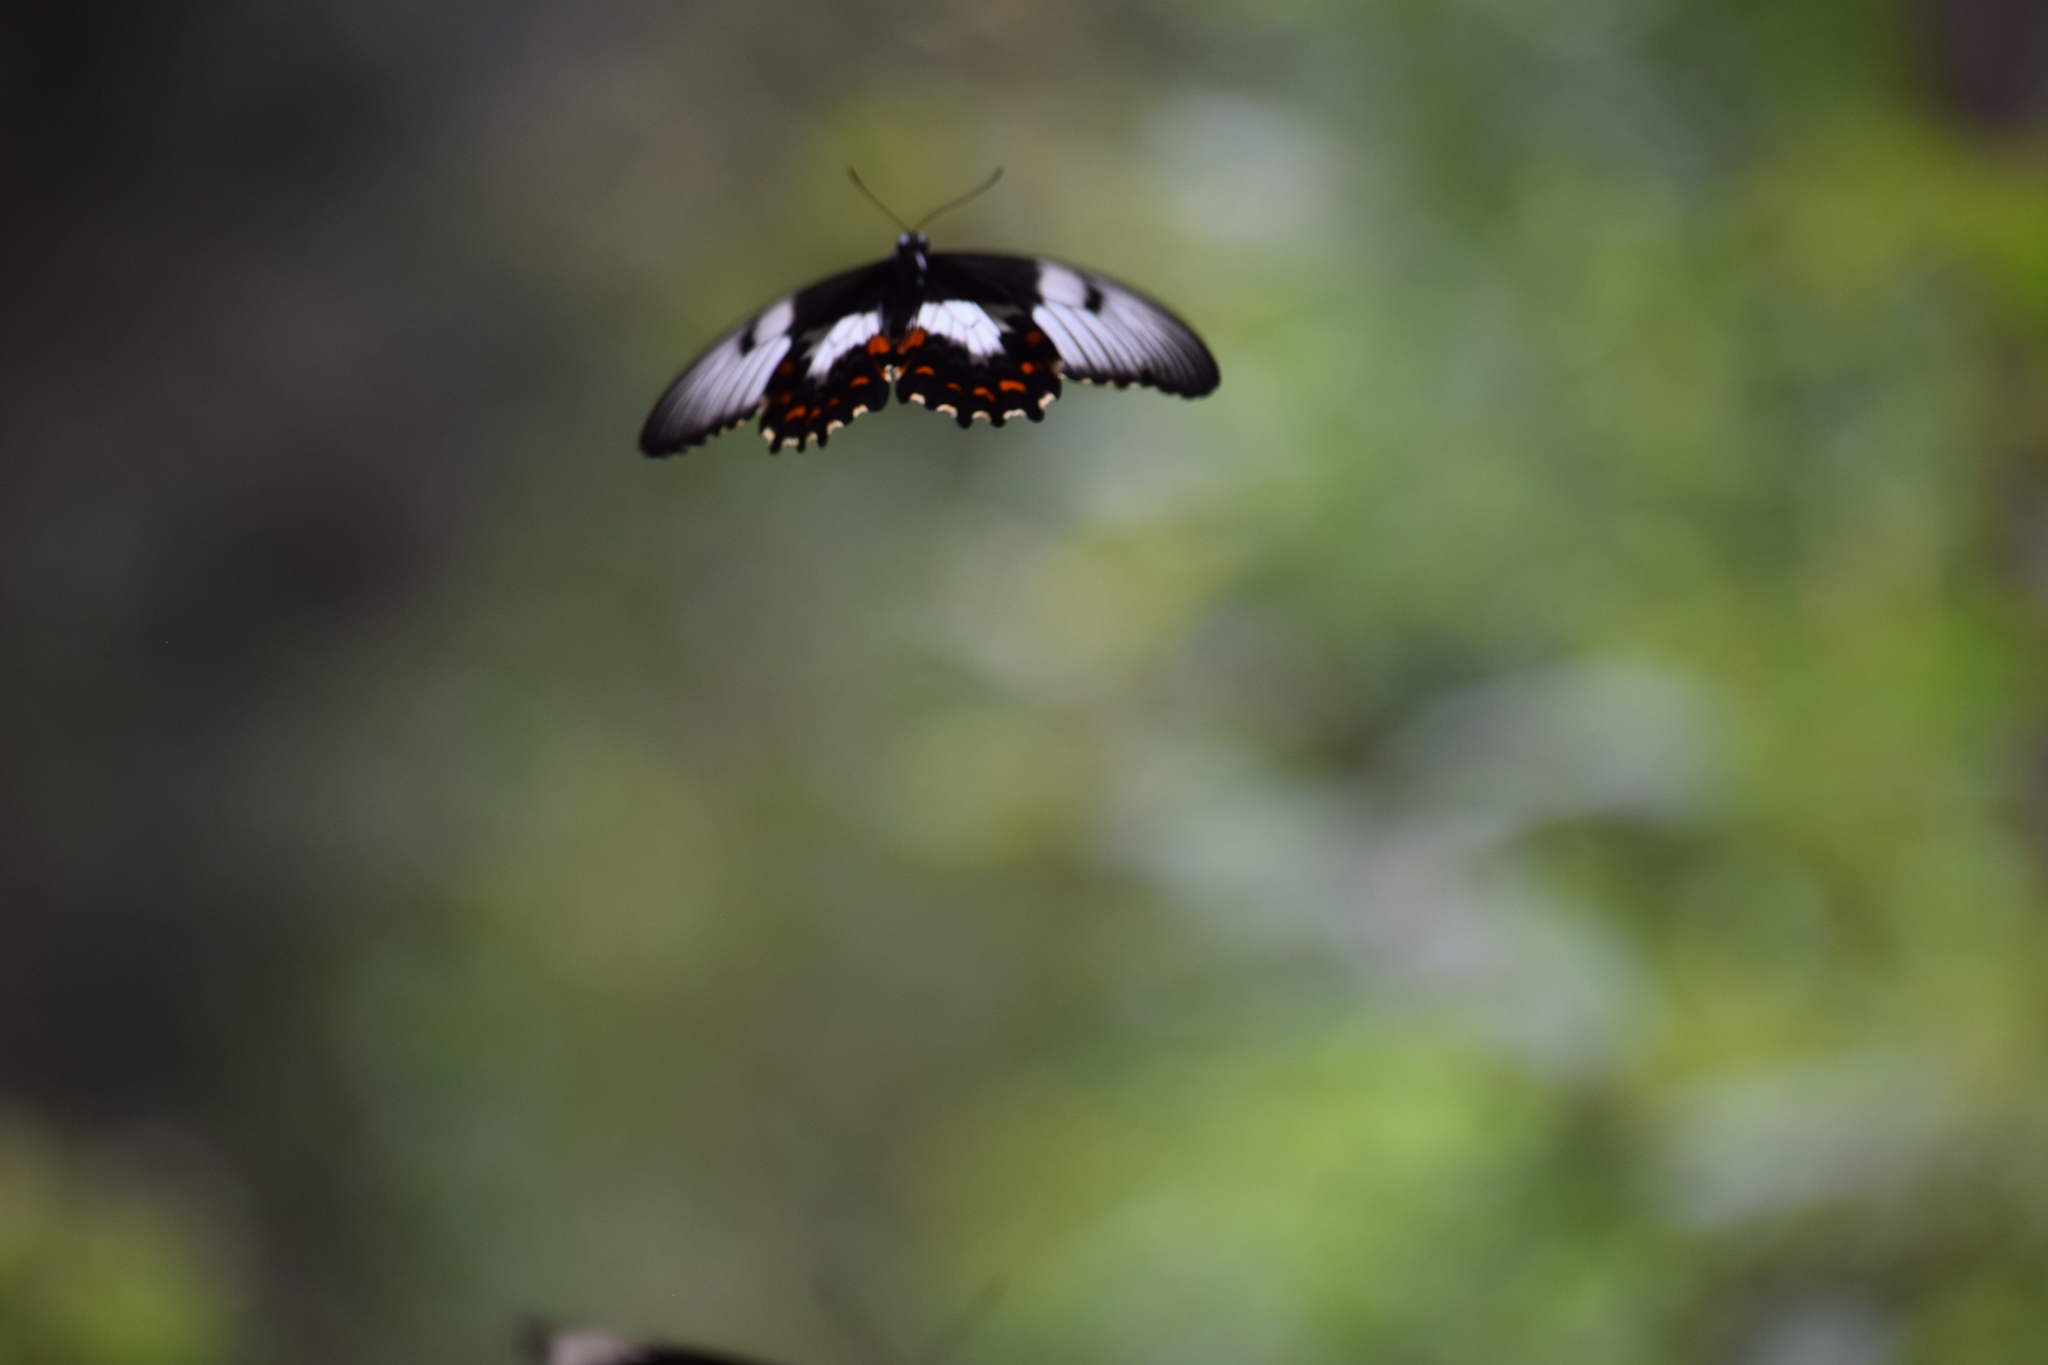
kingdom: Animalia
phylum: Arthropoda
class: Insecta
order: Lepidoptera
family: Papilionidae
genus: Papilio
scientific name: Papilio aegeus
